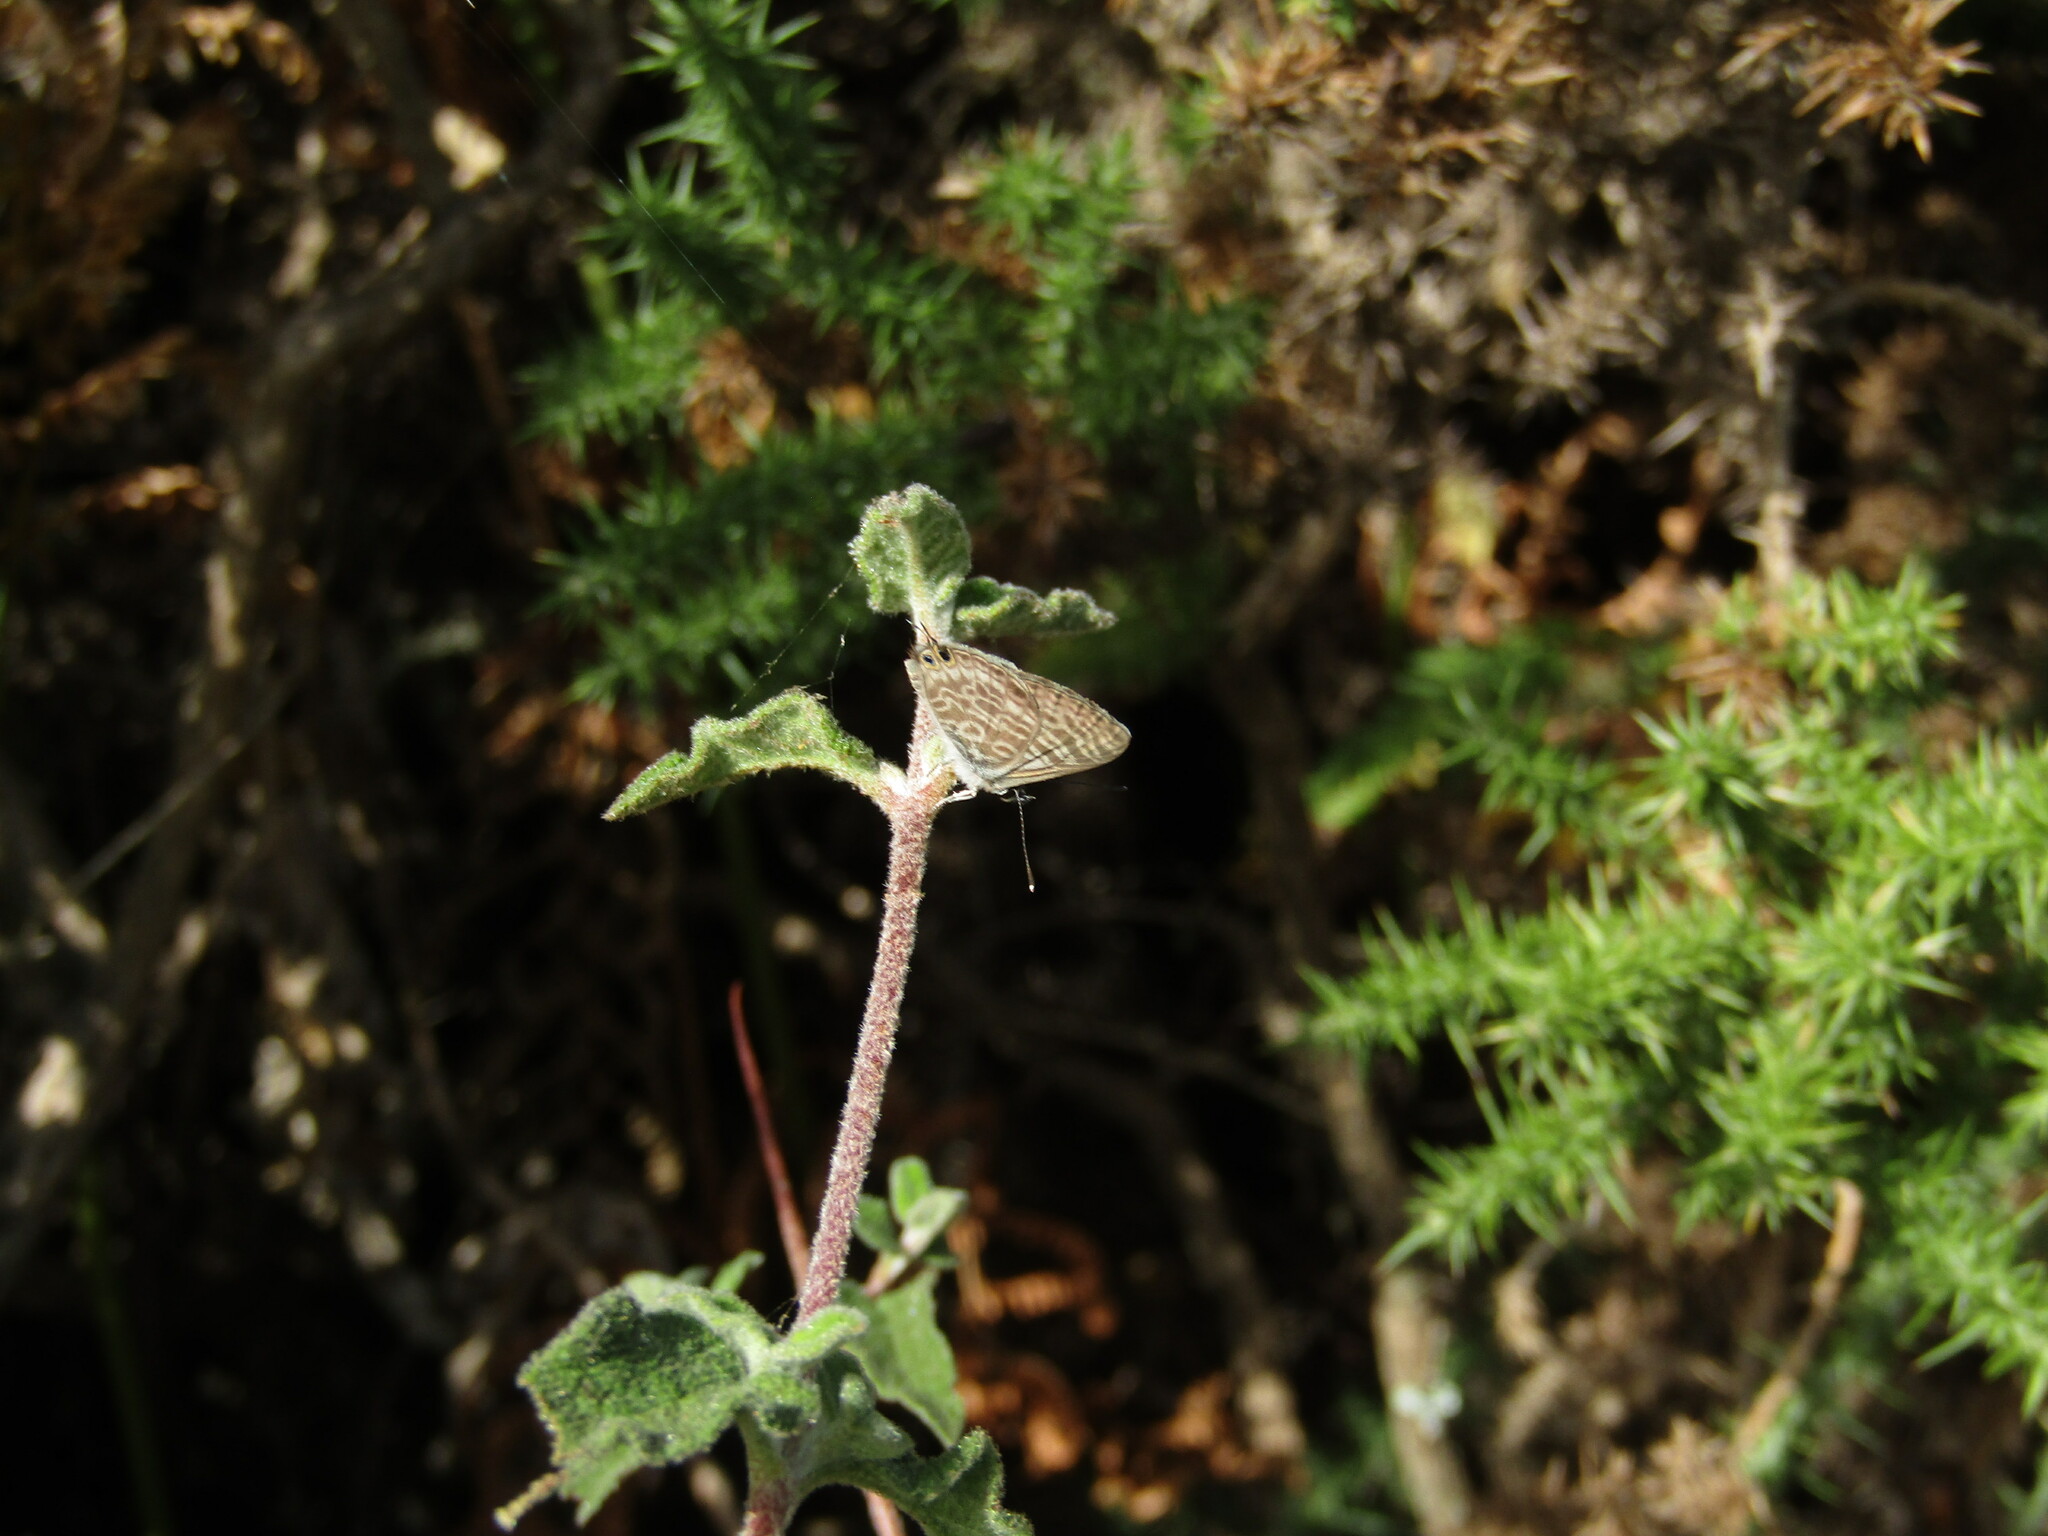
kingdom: Animalia
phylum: Arthropoda
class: Insecta
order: Lepidoptera
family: Lycaenidae
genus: Leptotes
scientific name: Leptotes pirithous
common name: Lang's short-tailed blue
